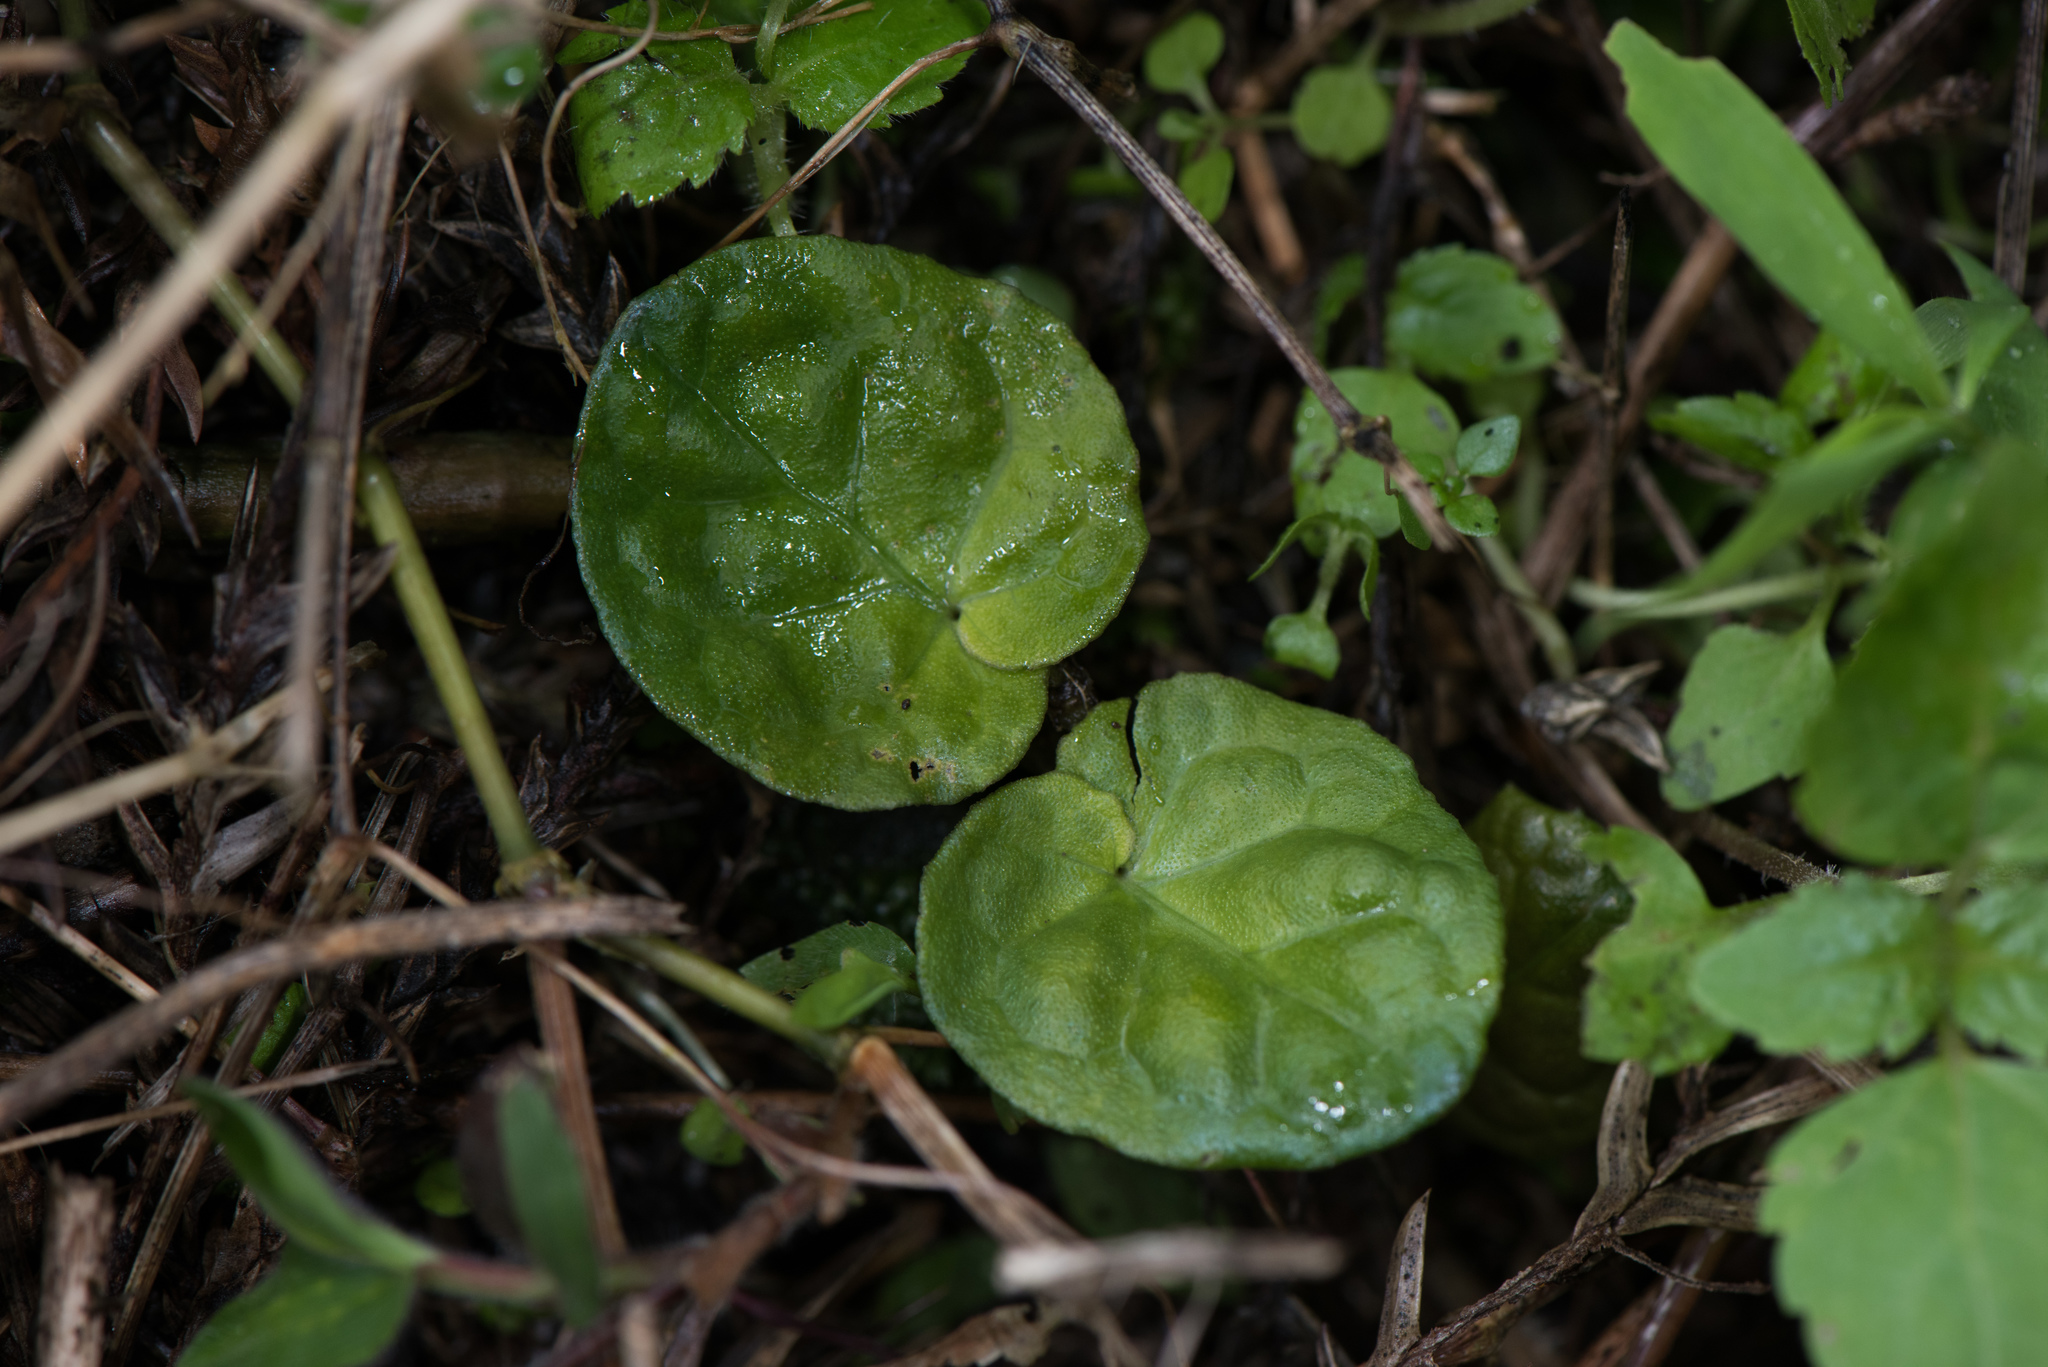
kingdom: Plantae
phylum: Tracheophyta
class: Magnoliopsida
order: Gentianales
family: Rubiaceae
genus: Geophila
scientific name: Geophila herbacea
